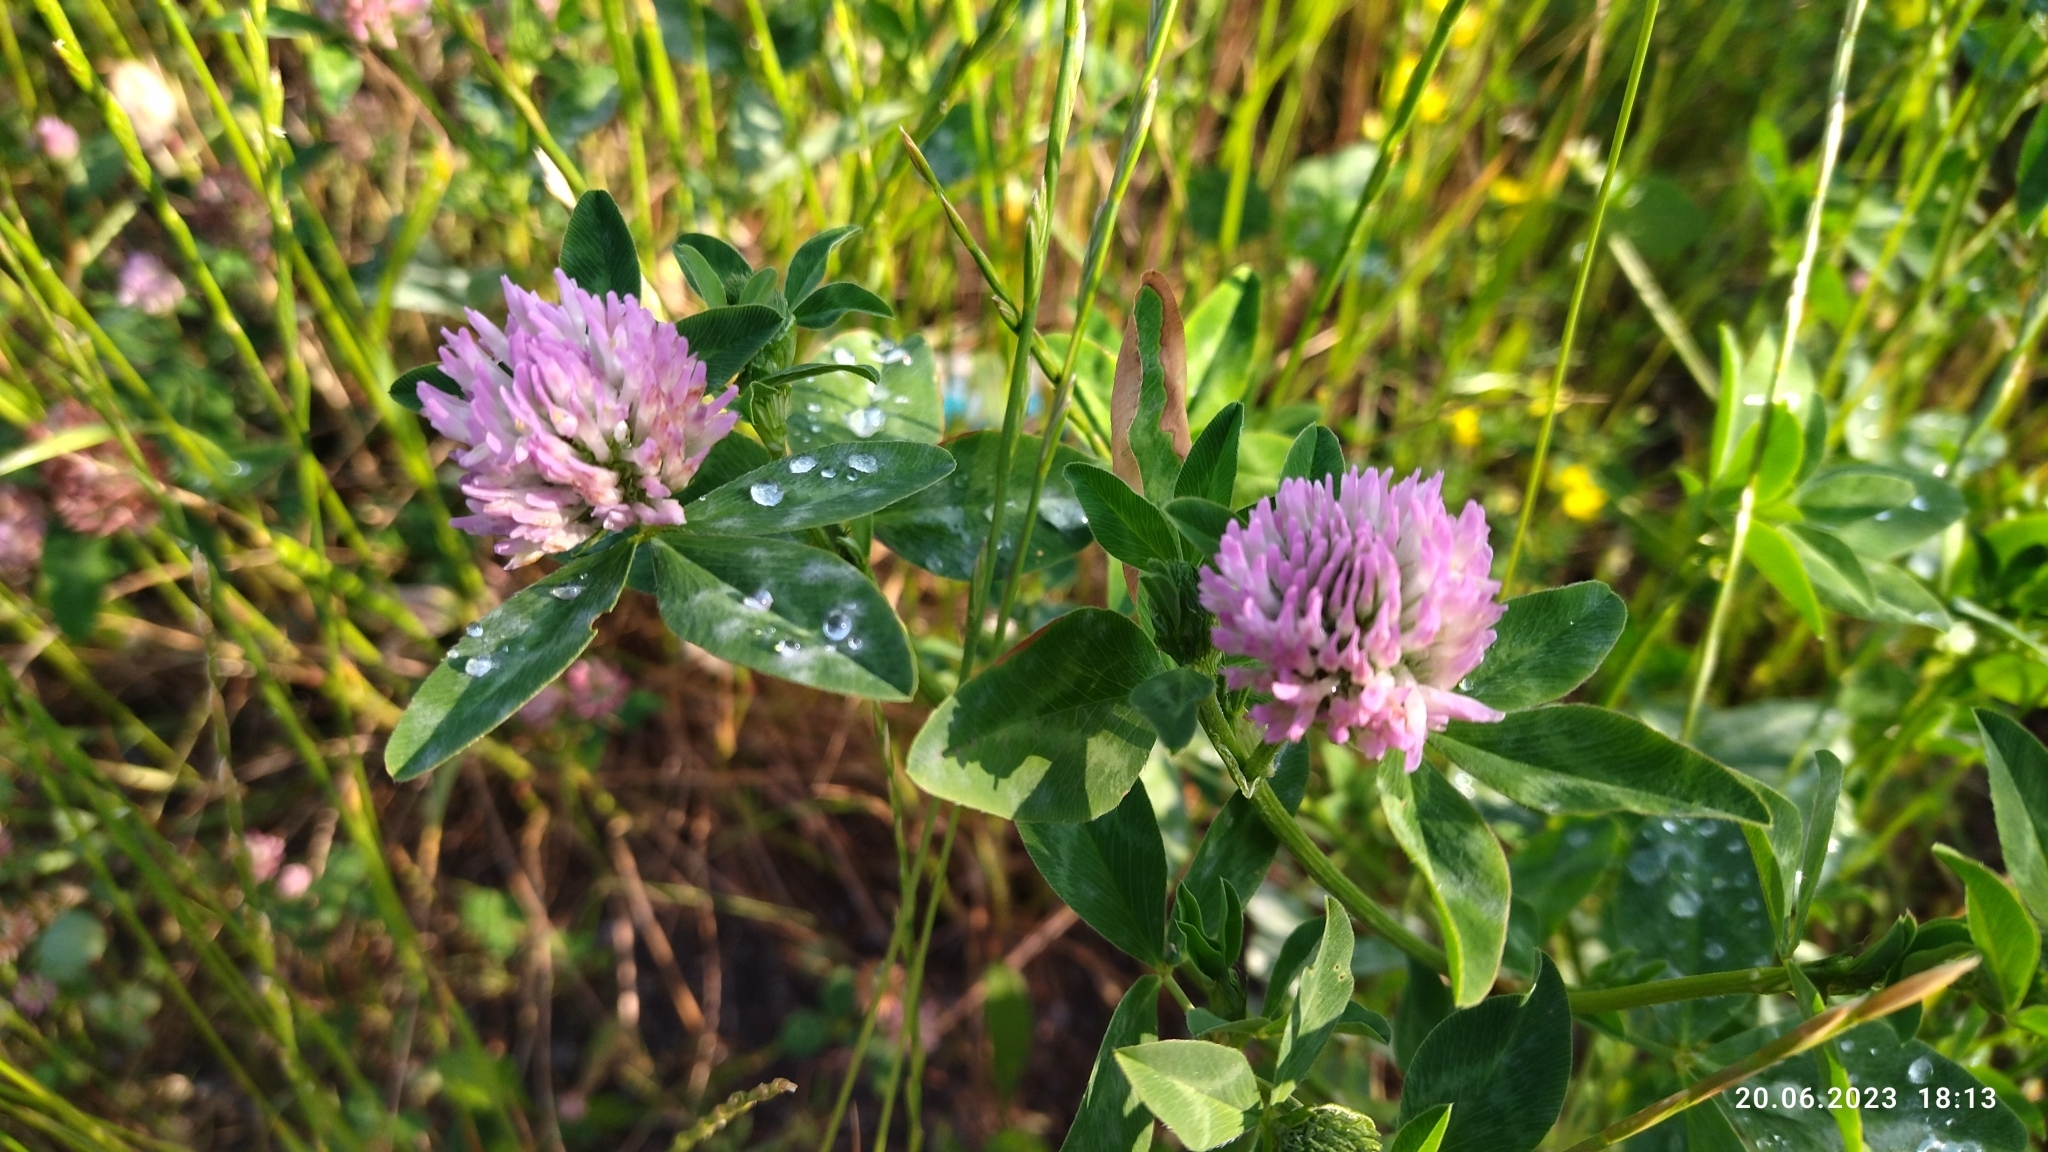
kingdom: Plantae
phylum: Tracheophyta
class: Magnoliopsida
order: Fabales
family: Fabaceae
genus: Trifolium
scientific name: Trifolium pratense
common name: Red clover
